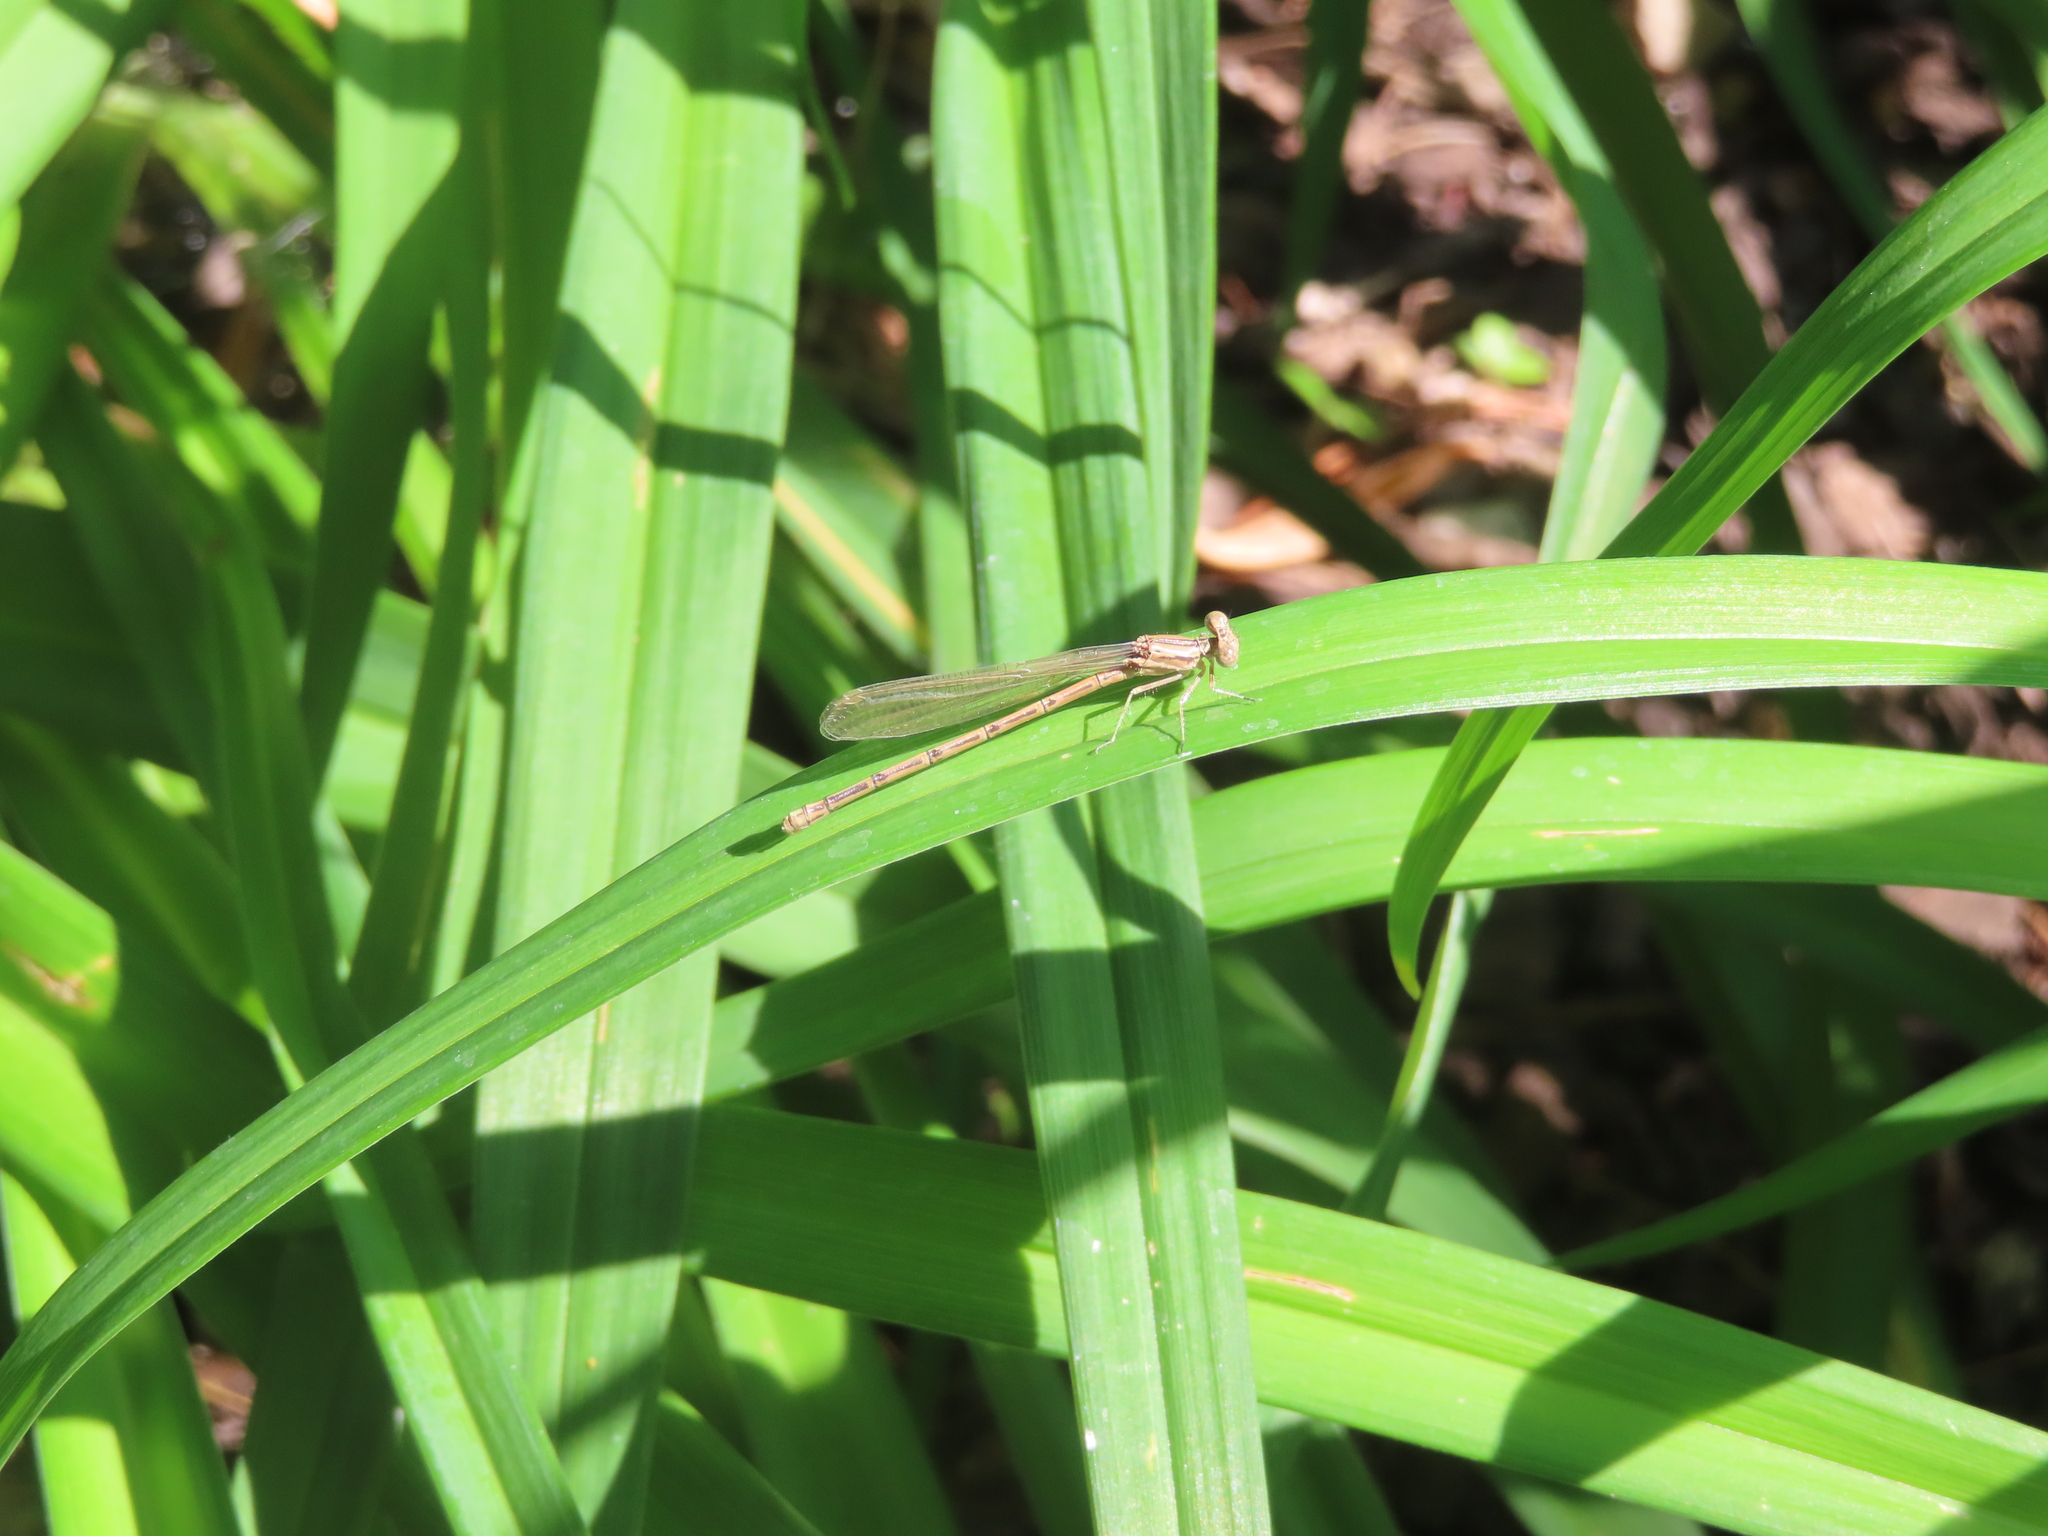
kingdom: Animalia
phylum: Arthropoda
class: Insecta
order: Odonata
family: Coenagrionidae
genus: Argia
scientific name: Argia fumipennis
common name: Variable dancer
